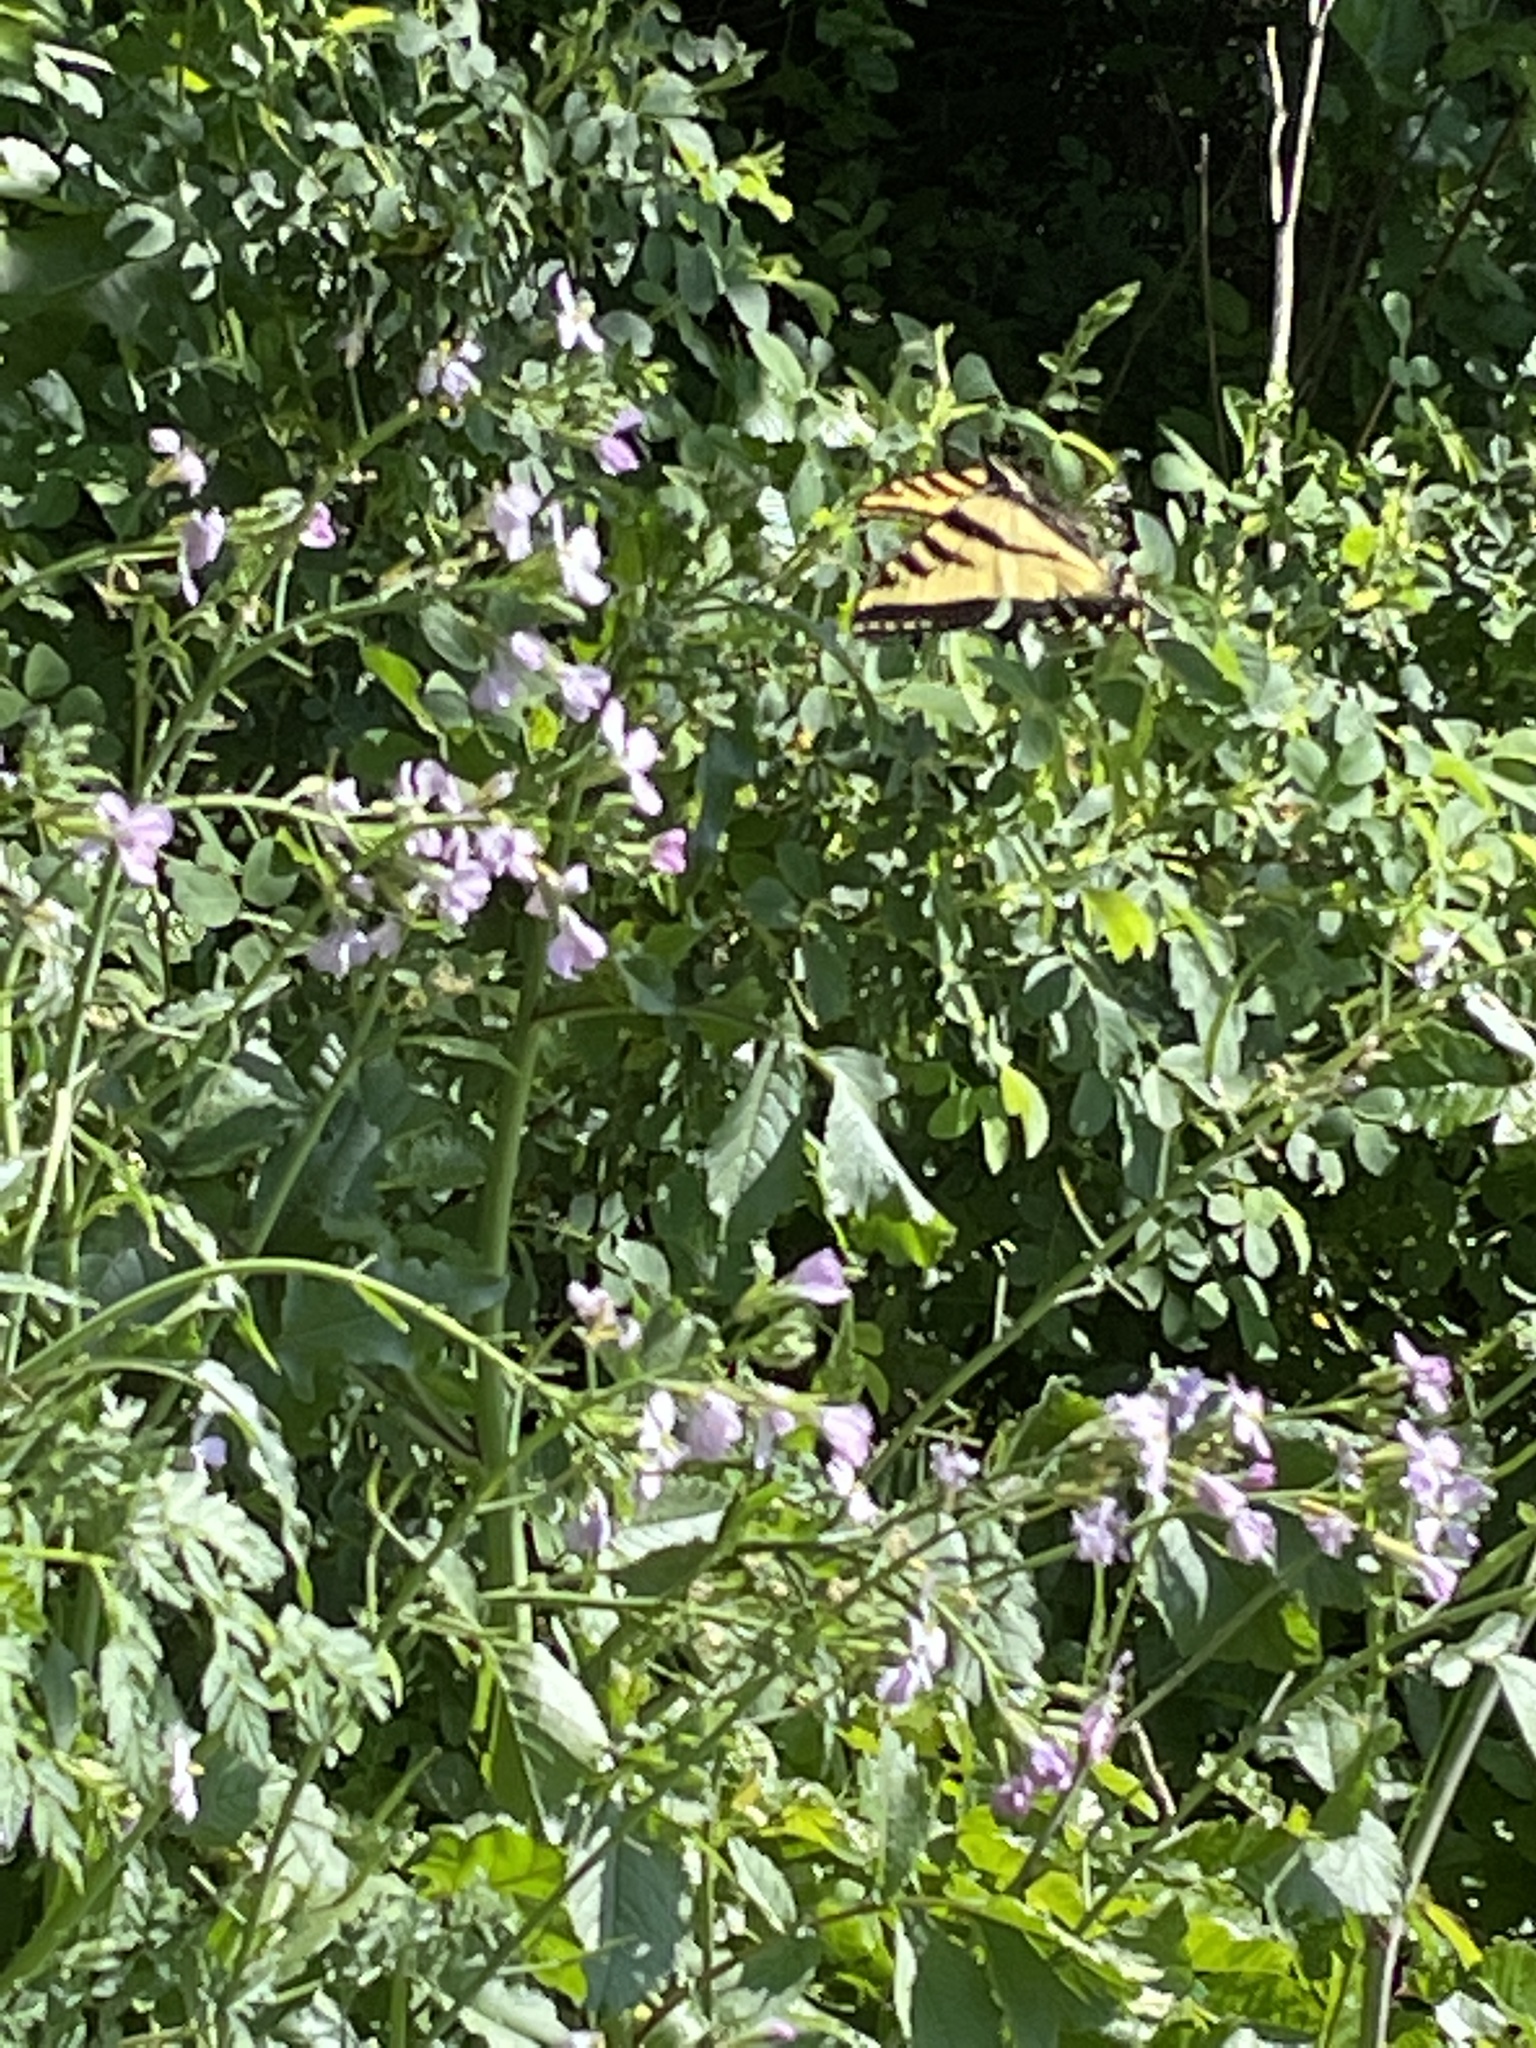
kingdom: Animalia
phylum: Arthropoda
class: Insecta
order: Lepidoptera
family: Papilionidae
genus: Papilio
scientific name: Papilio rutulus
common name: Western tiger swallowtail
